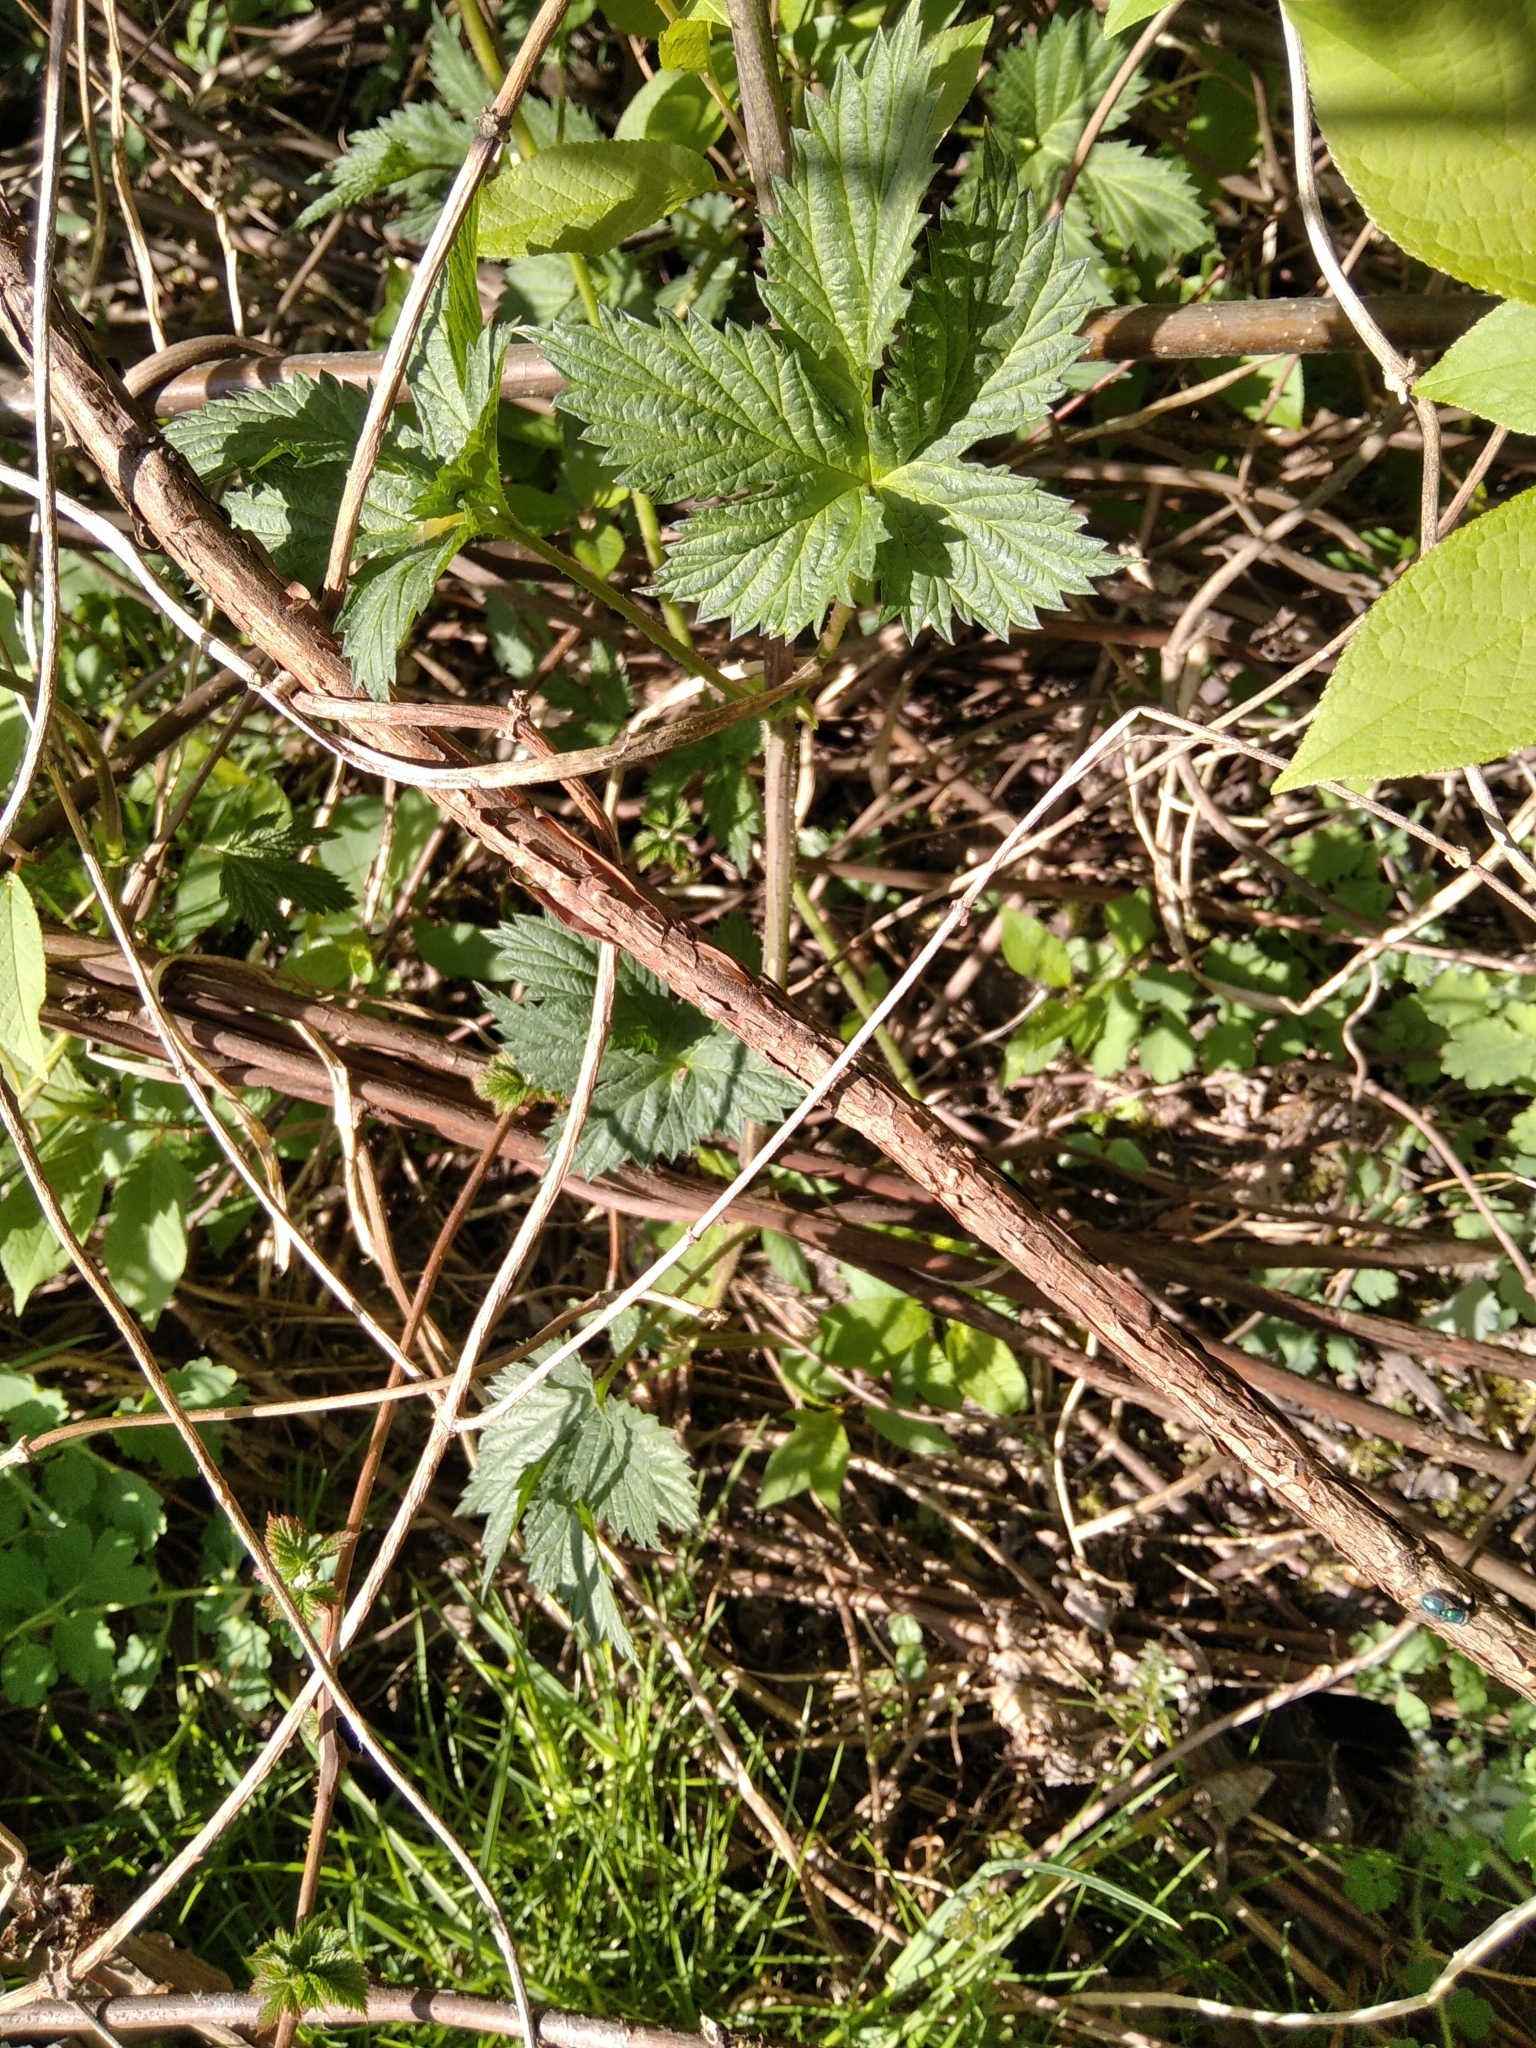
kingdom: Plantae
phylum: Tracheophyta
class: Magnoliopsida
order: Rosales
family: Cannabaceae
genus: Humulus
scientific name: Humulus lupulus
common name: Hop
